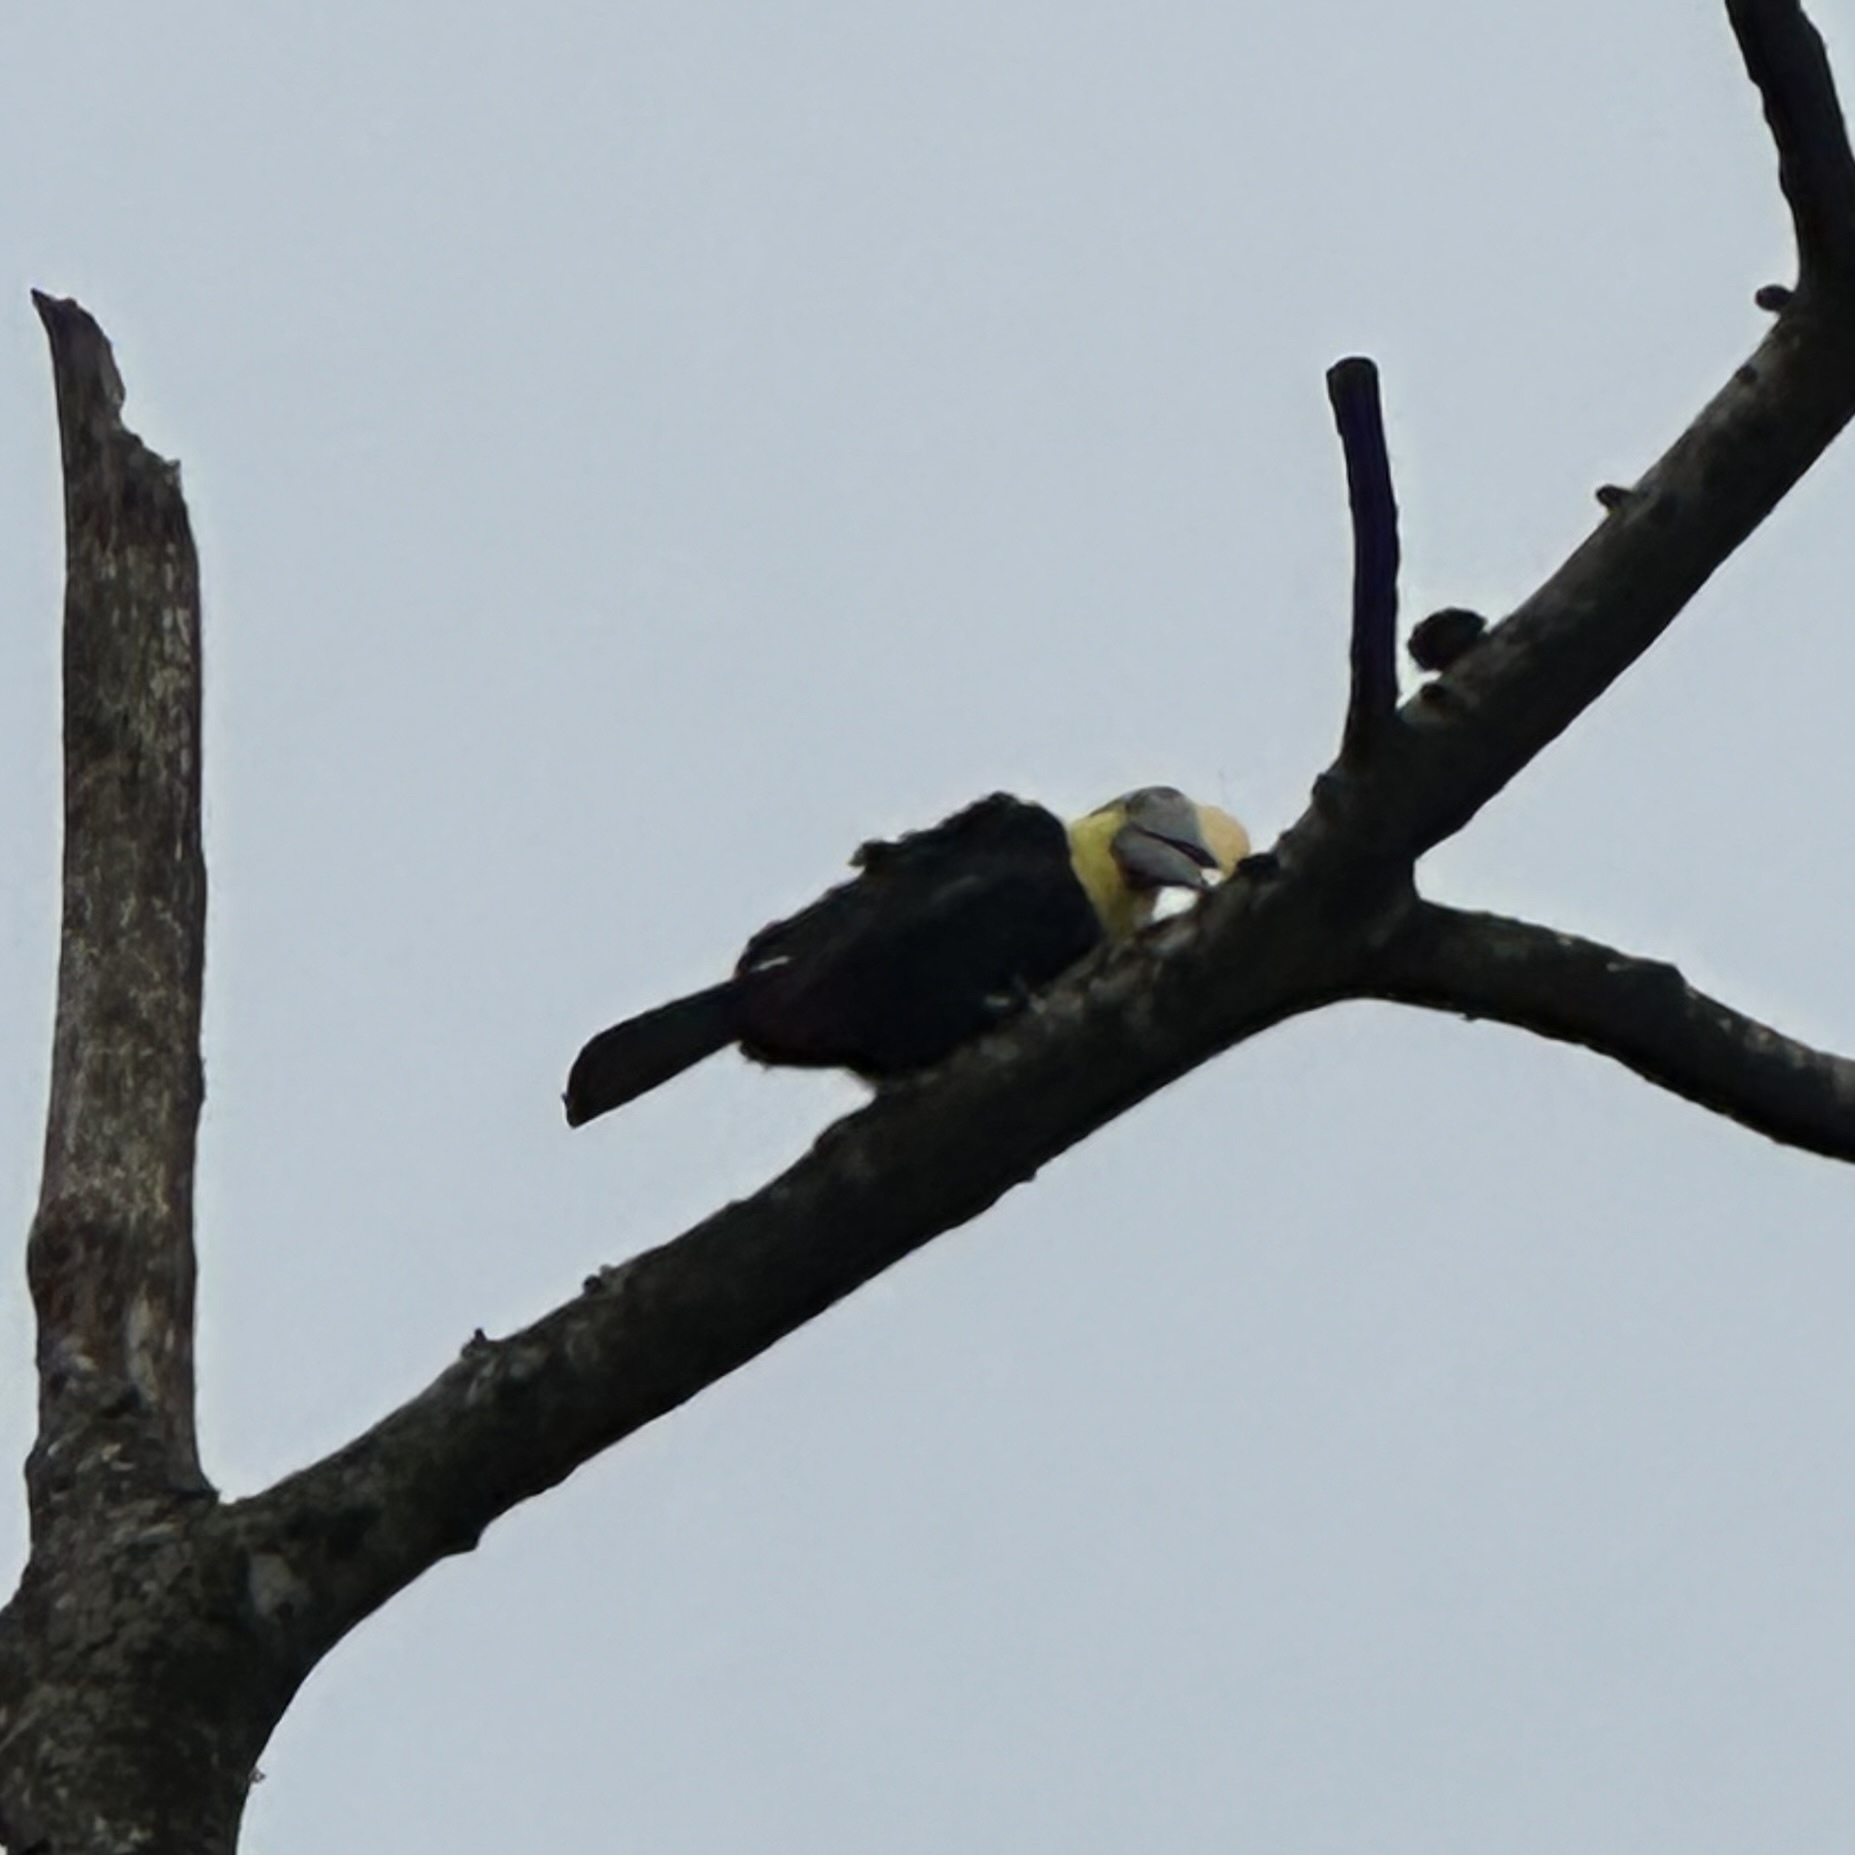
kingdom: Animalia
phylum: Chordata
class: Aves
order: Piciformes
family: Ramphastidae
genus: Ramphastos
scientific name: Ramphastos ambiguus
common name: Yellow-throated toucan
